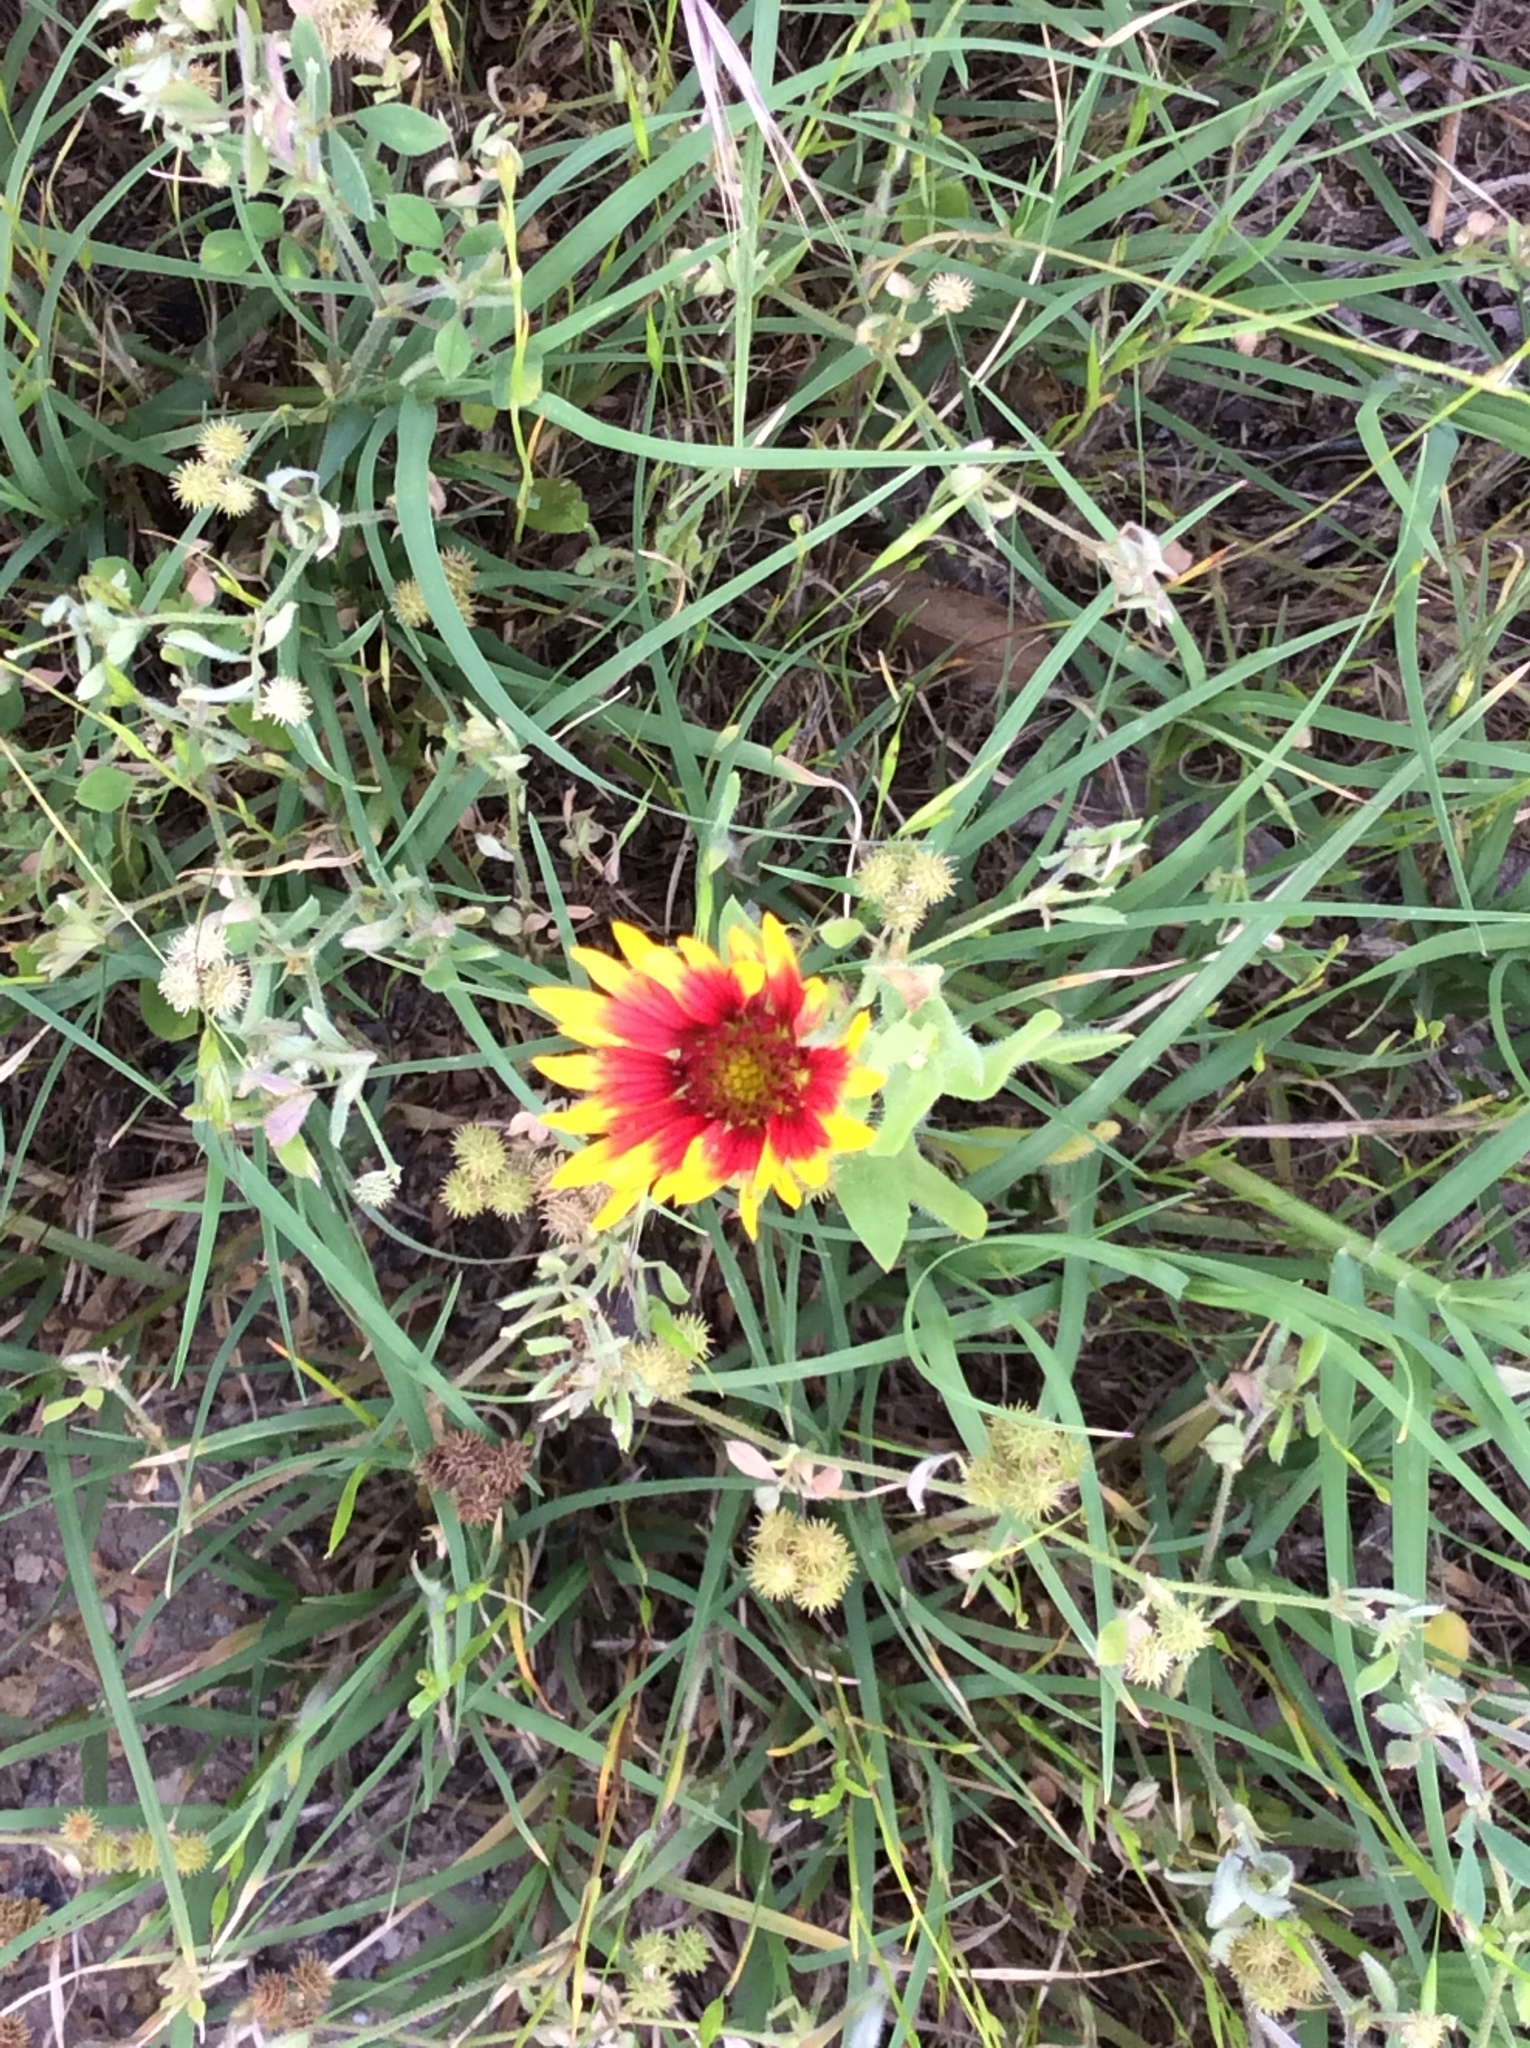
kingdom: Plantae
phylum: Tracheophyta
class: Magnoliopsida
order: Asterales
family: Asteraceae
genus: Gaillardia
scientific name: Gaillardia pulchella
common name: Firewheel
